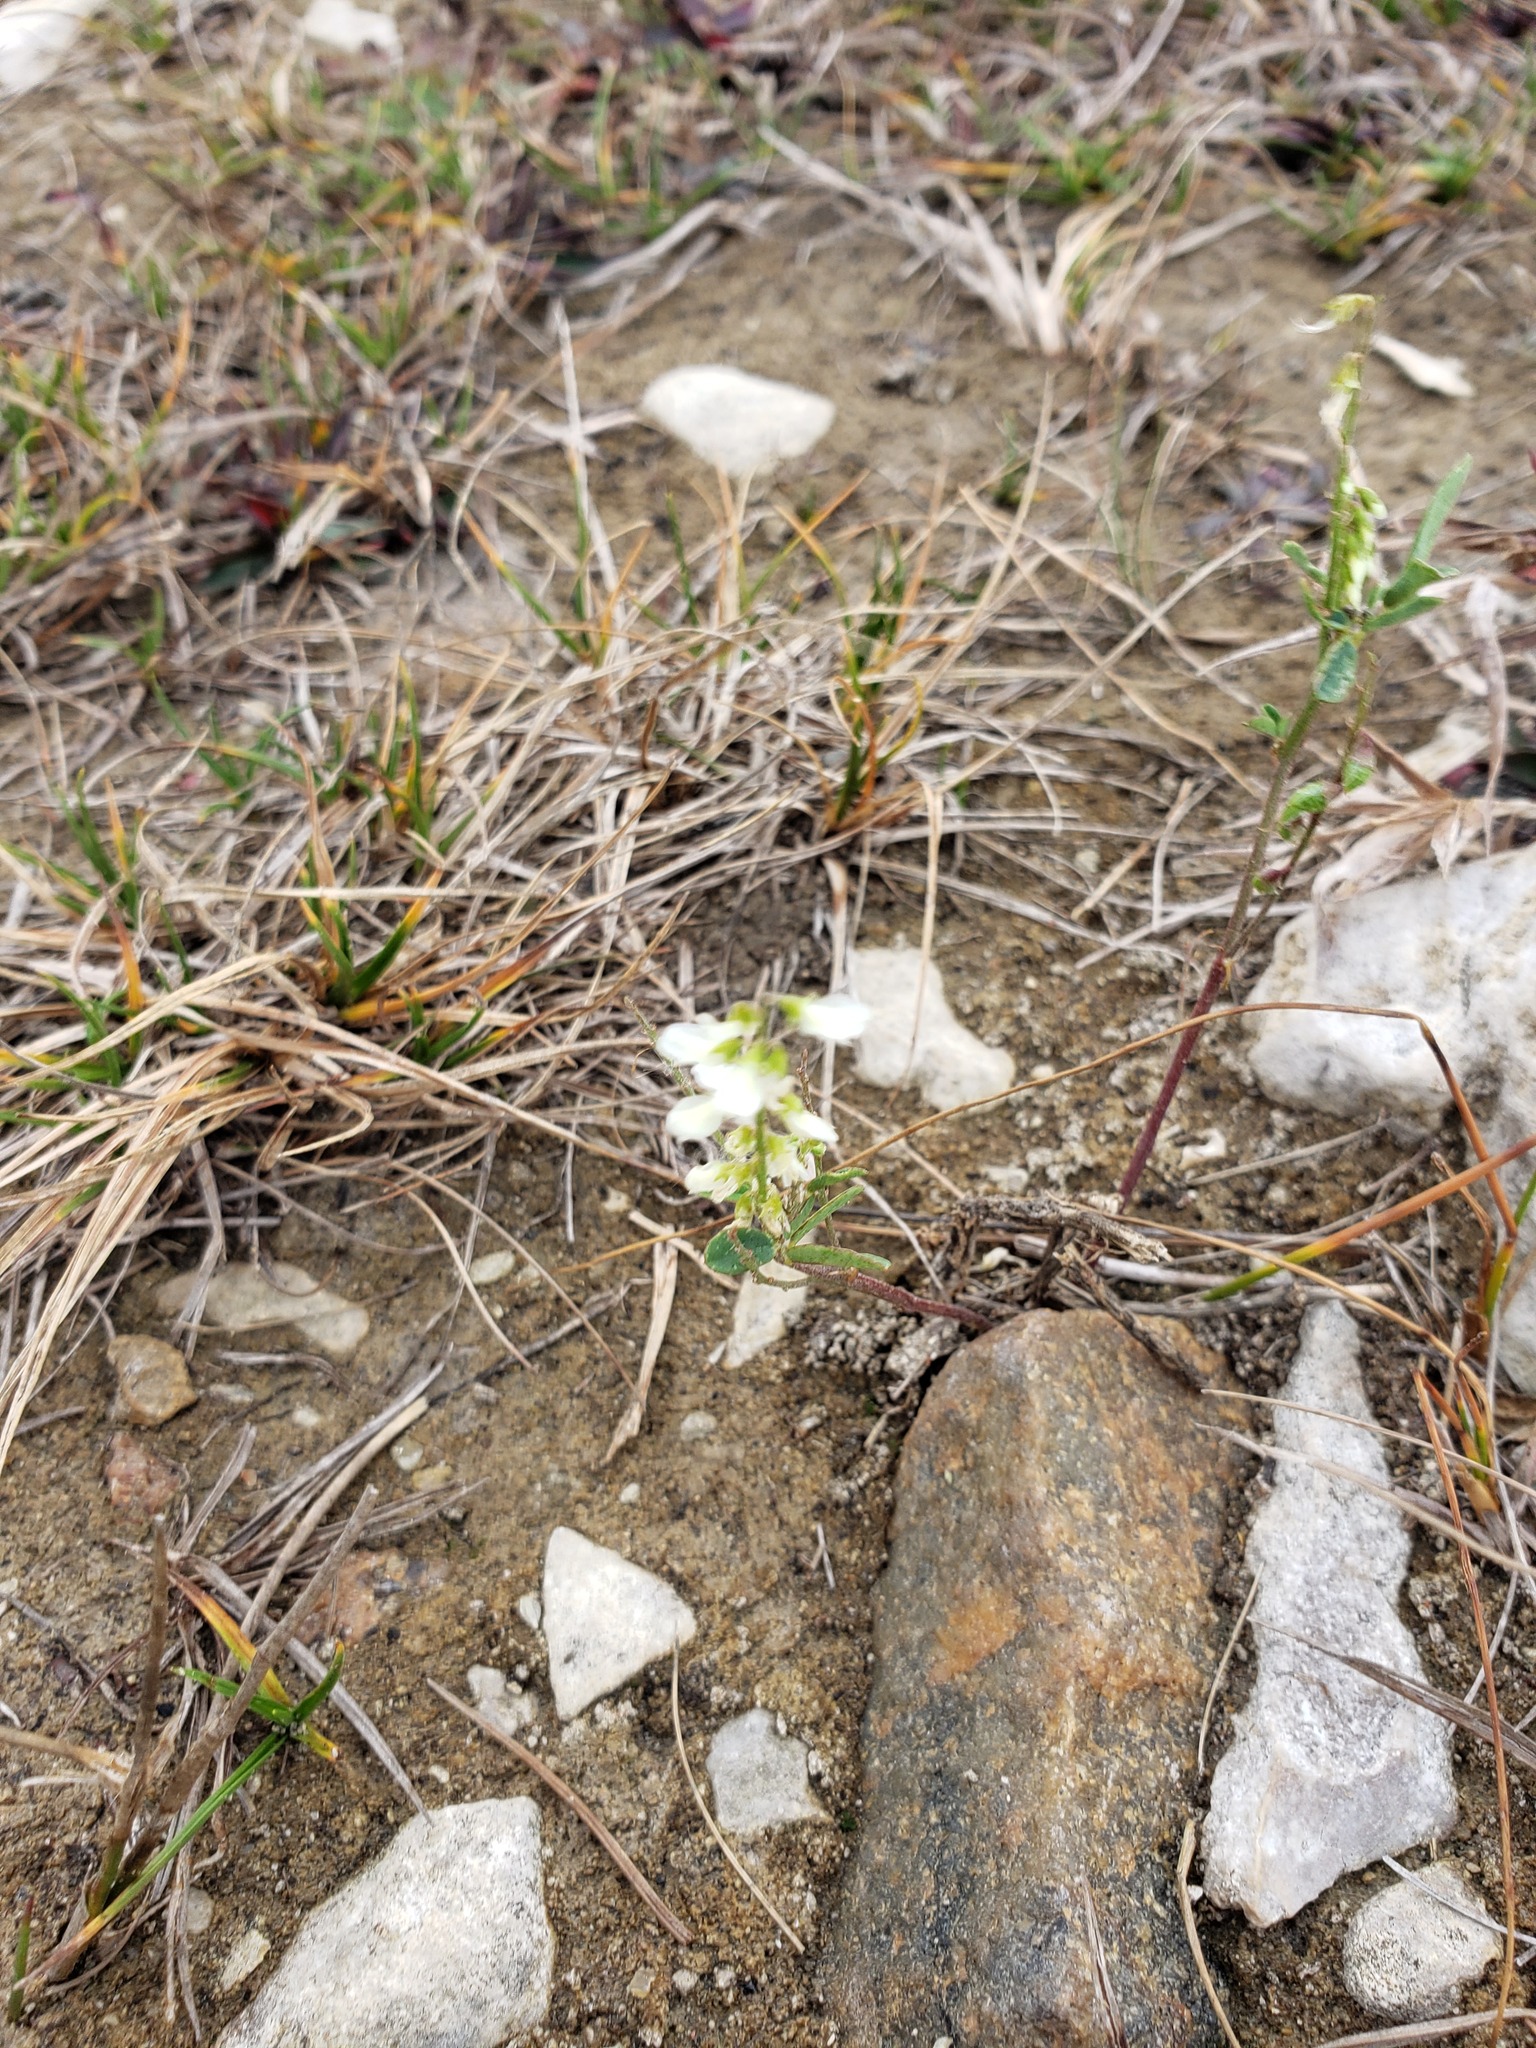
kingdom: Plantae
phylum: Tracheophyta
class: Magnoliopsida
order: Fabales
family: Fabaceae
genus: Melilotus
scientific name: Melilotus albus
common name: White melilot
